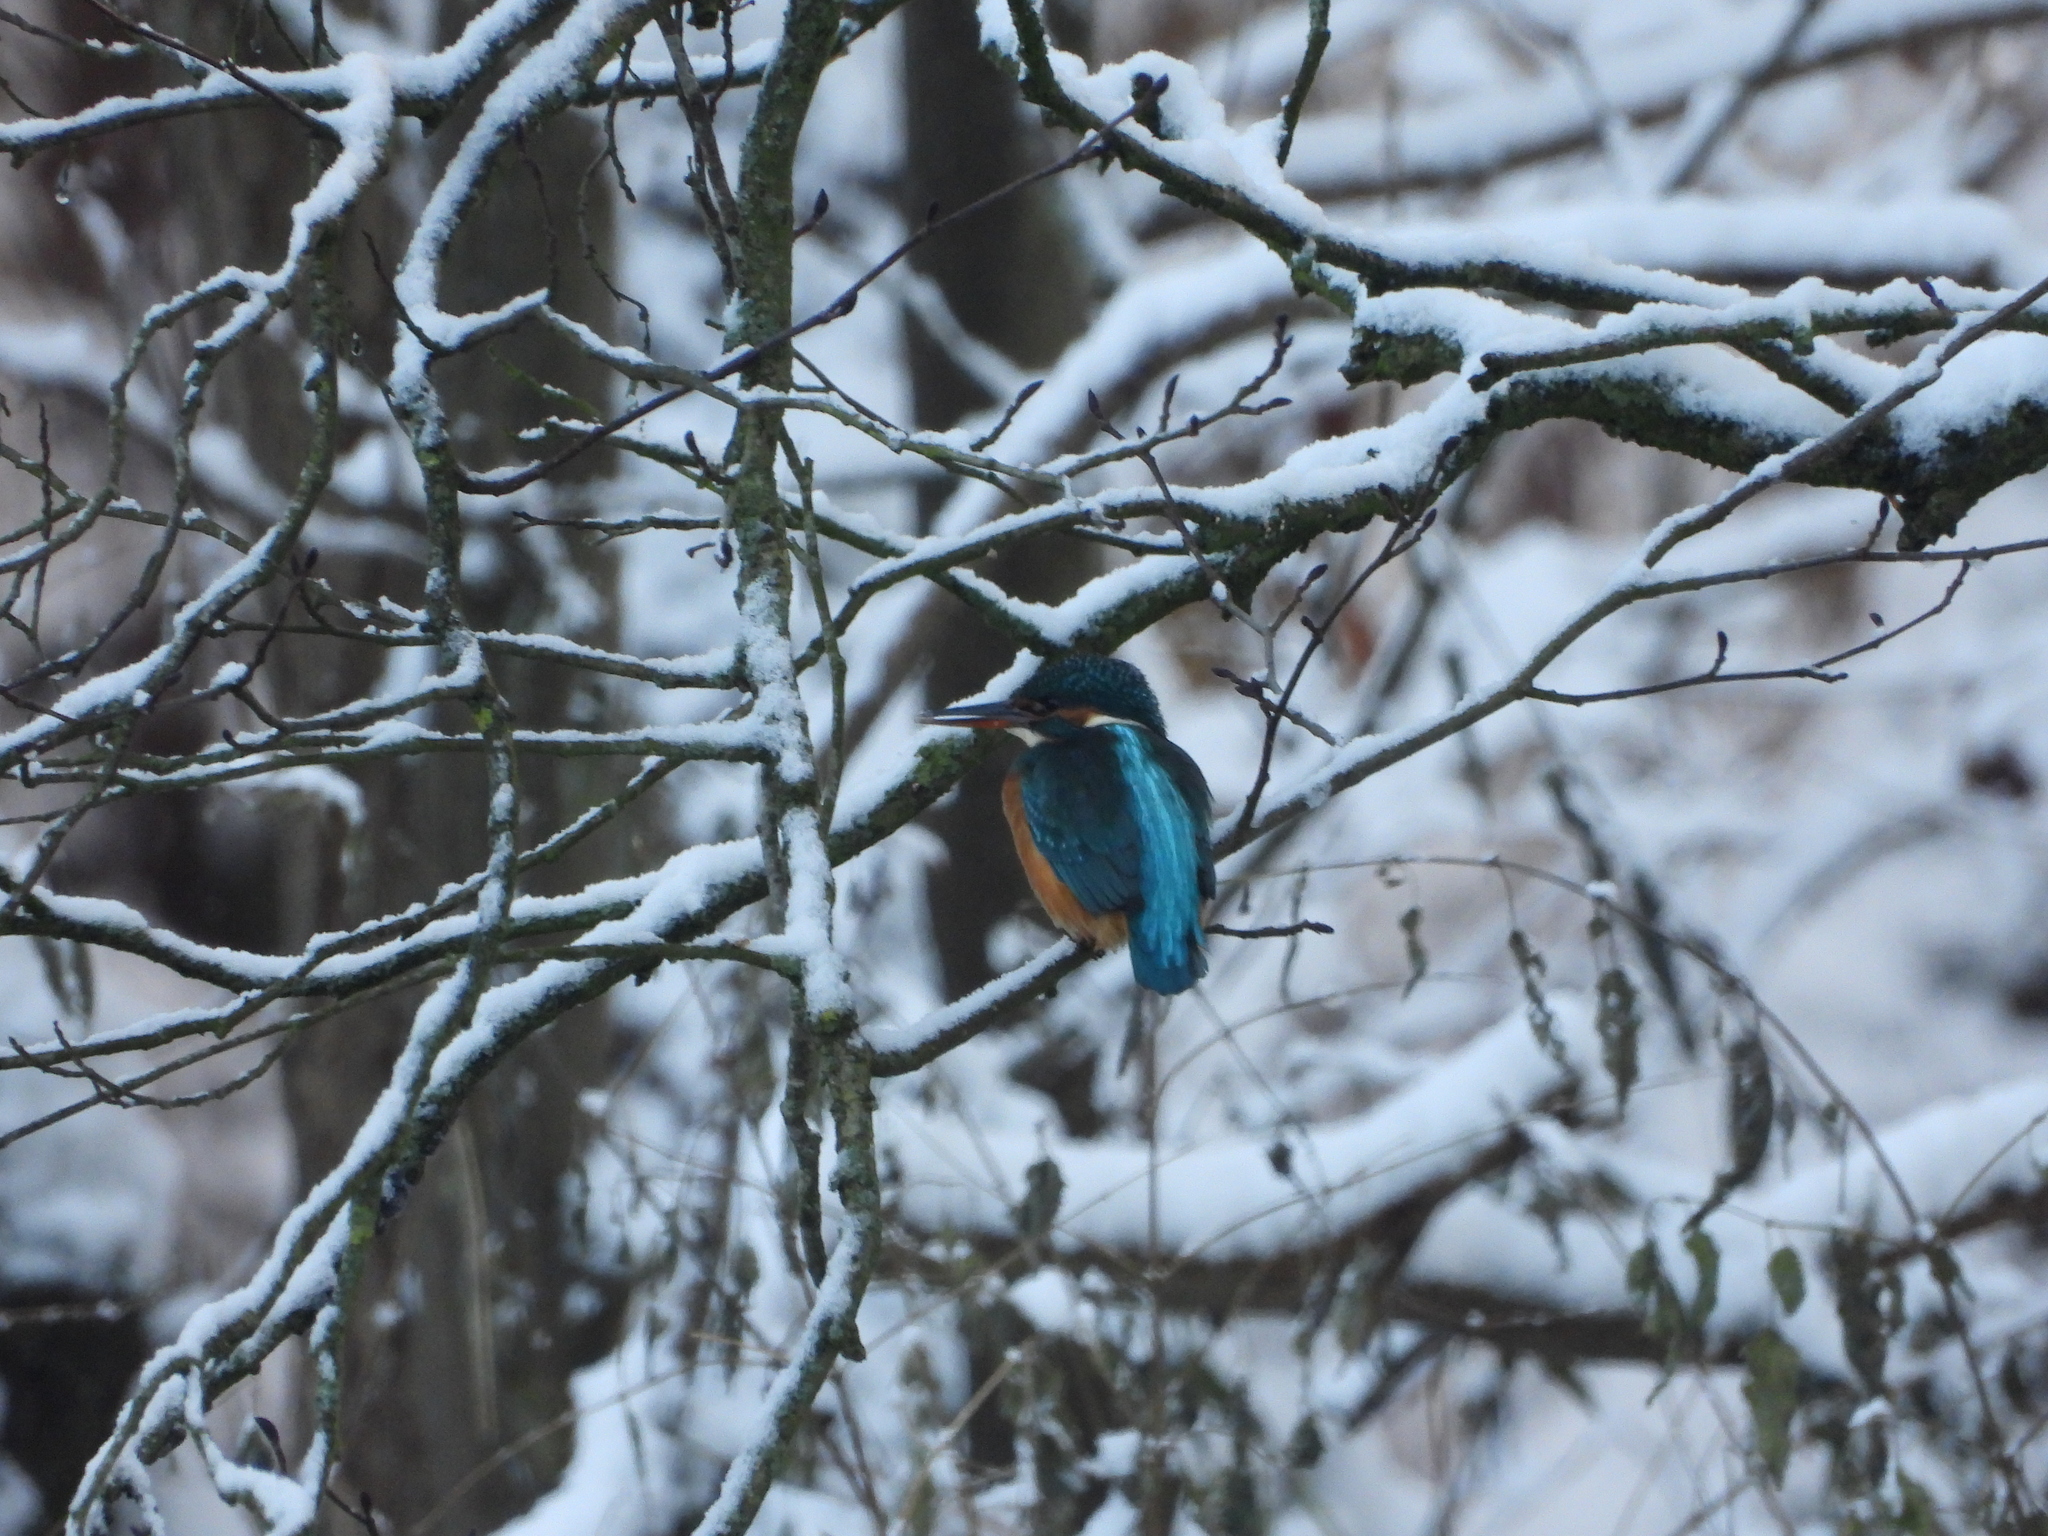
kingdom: Animalia
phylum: Chordata
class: Aves
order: Coraciiformes
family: Alcedinidae
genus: Alcedo
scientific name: Alcedo atthis
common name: Common kingfisher
